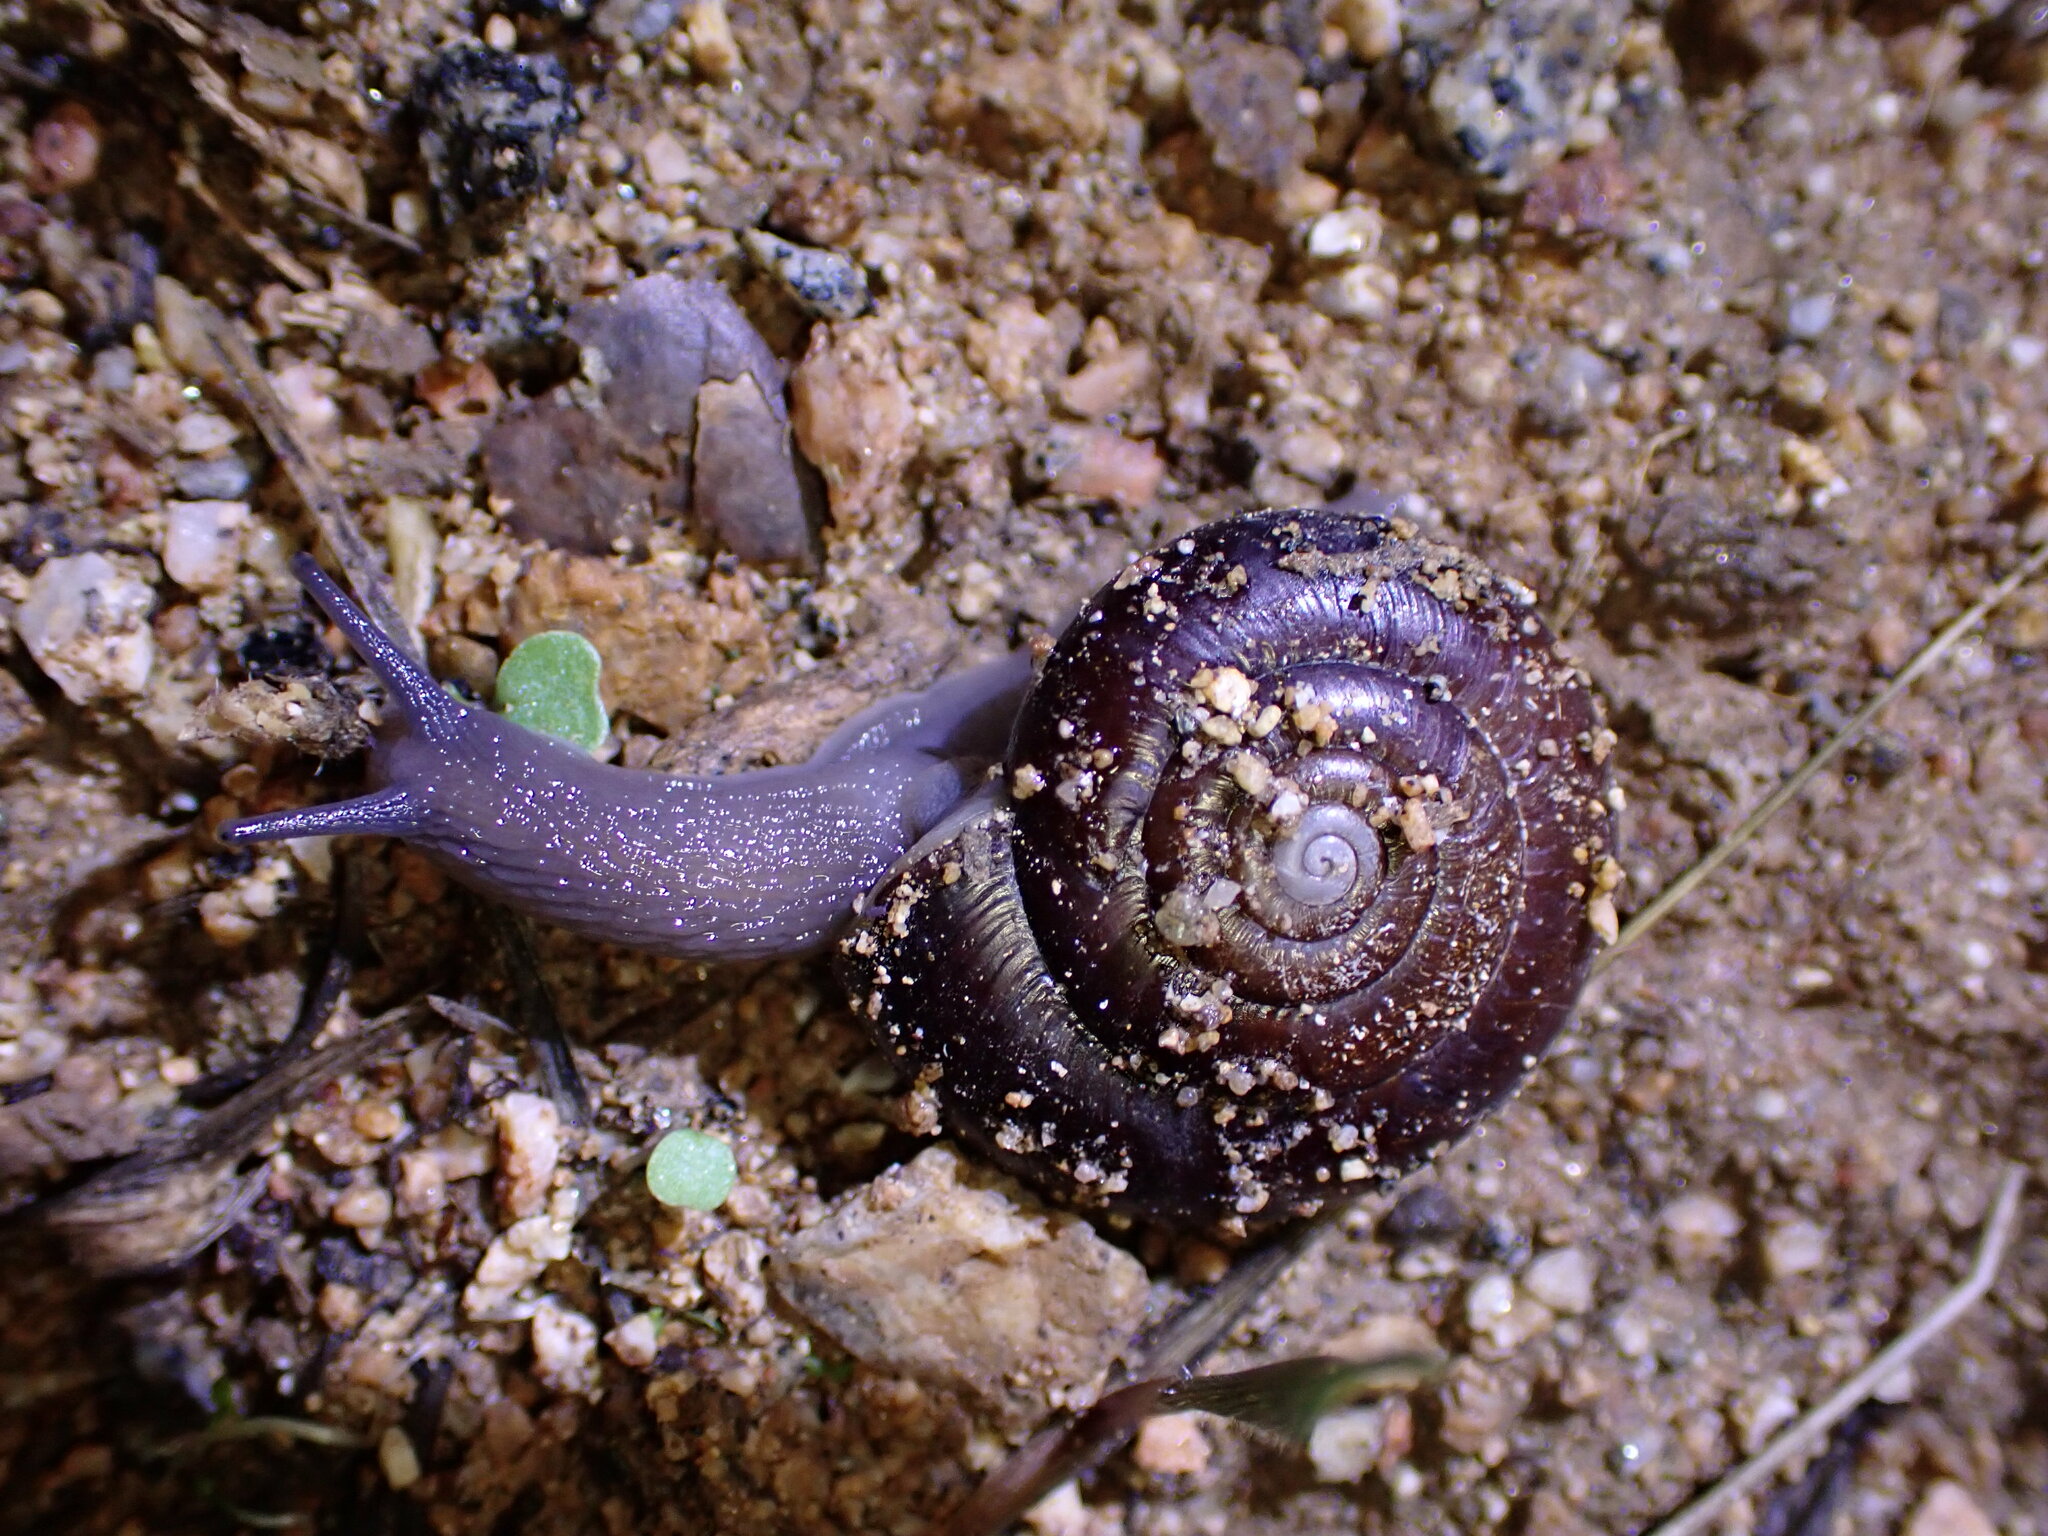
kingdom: Animalia
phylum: Mollusca
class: Gastropoda
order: Stylommatophora
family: Megomphicidae
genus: Glyptostoma
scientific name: Glyptostoma gabrielense
